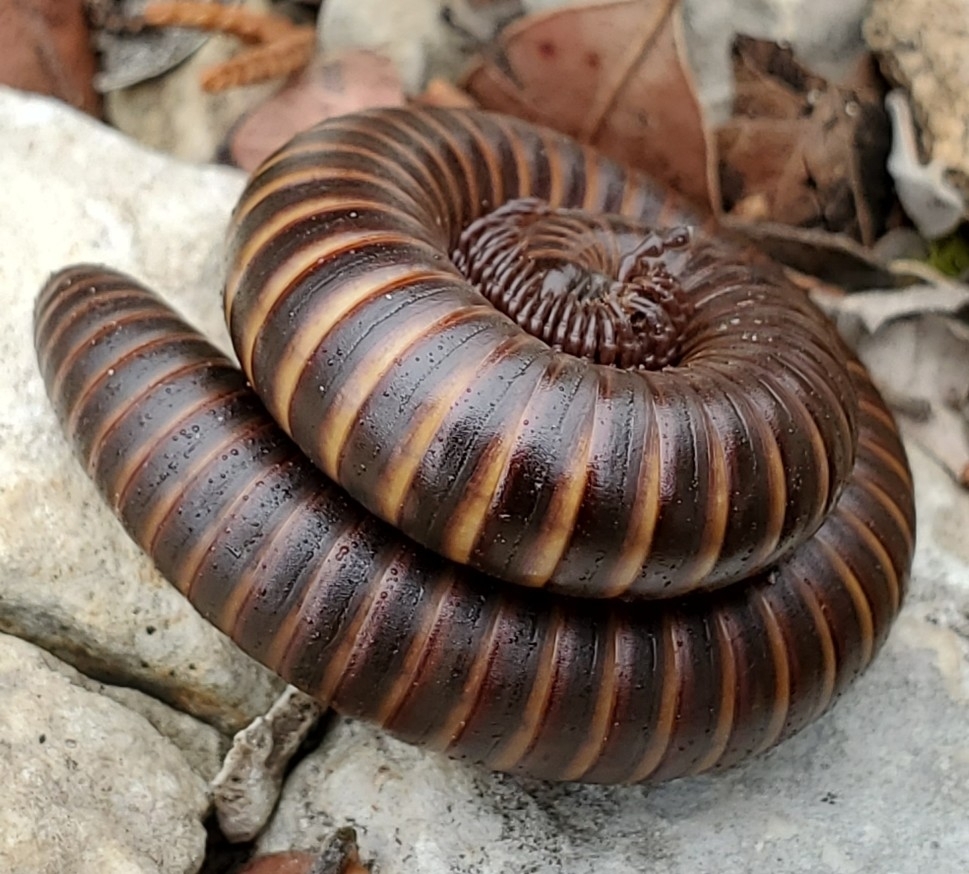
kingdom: Animalia
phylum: Arthropoda
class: Diplopoda
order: Spirostreptida
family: Spirostreptidae
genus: Orthoporus
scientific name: Orthoporus ornatus
